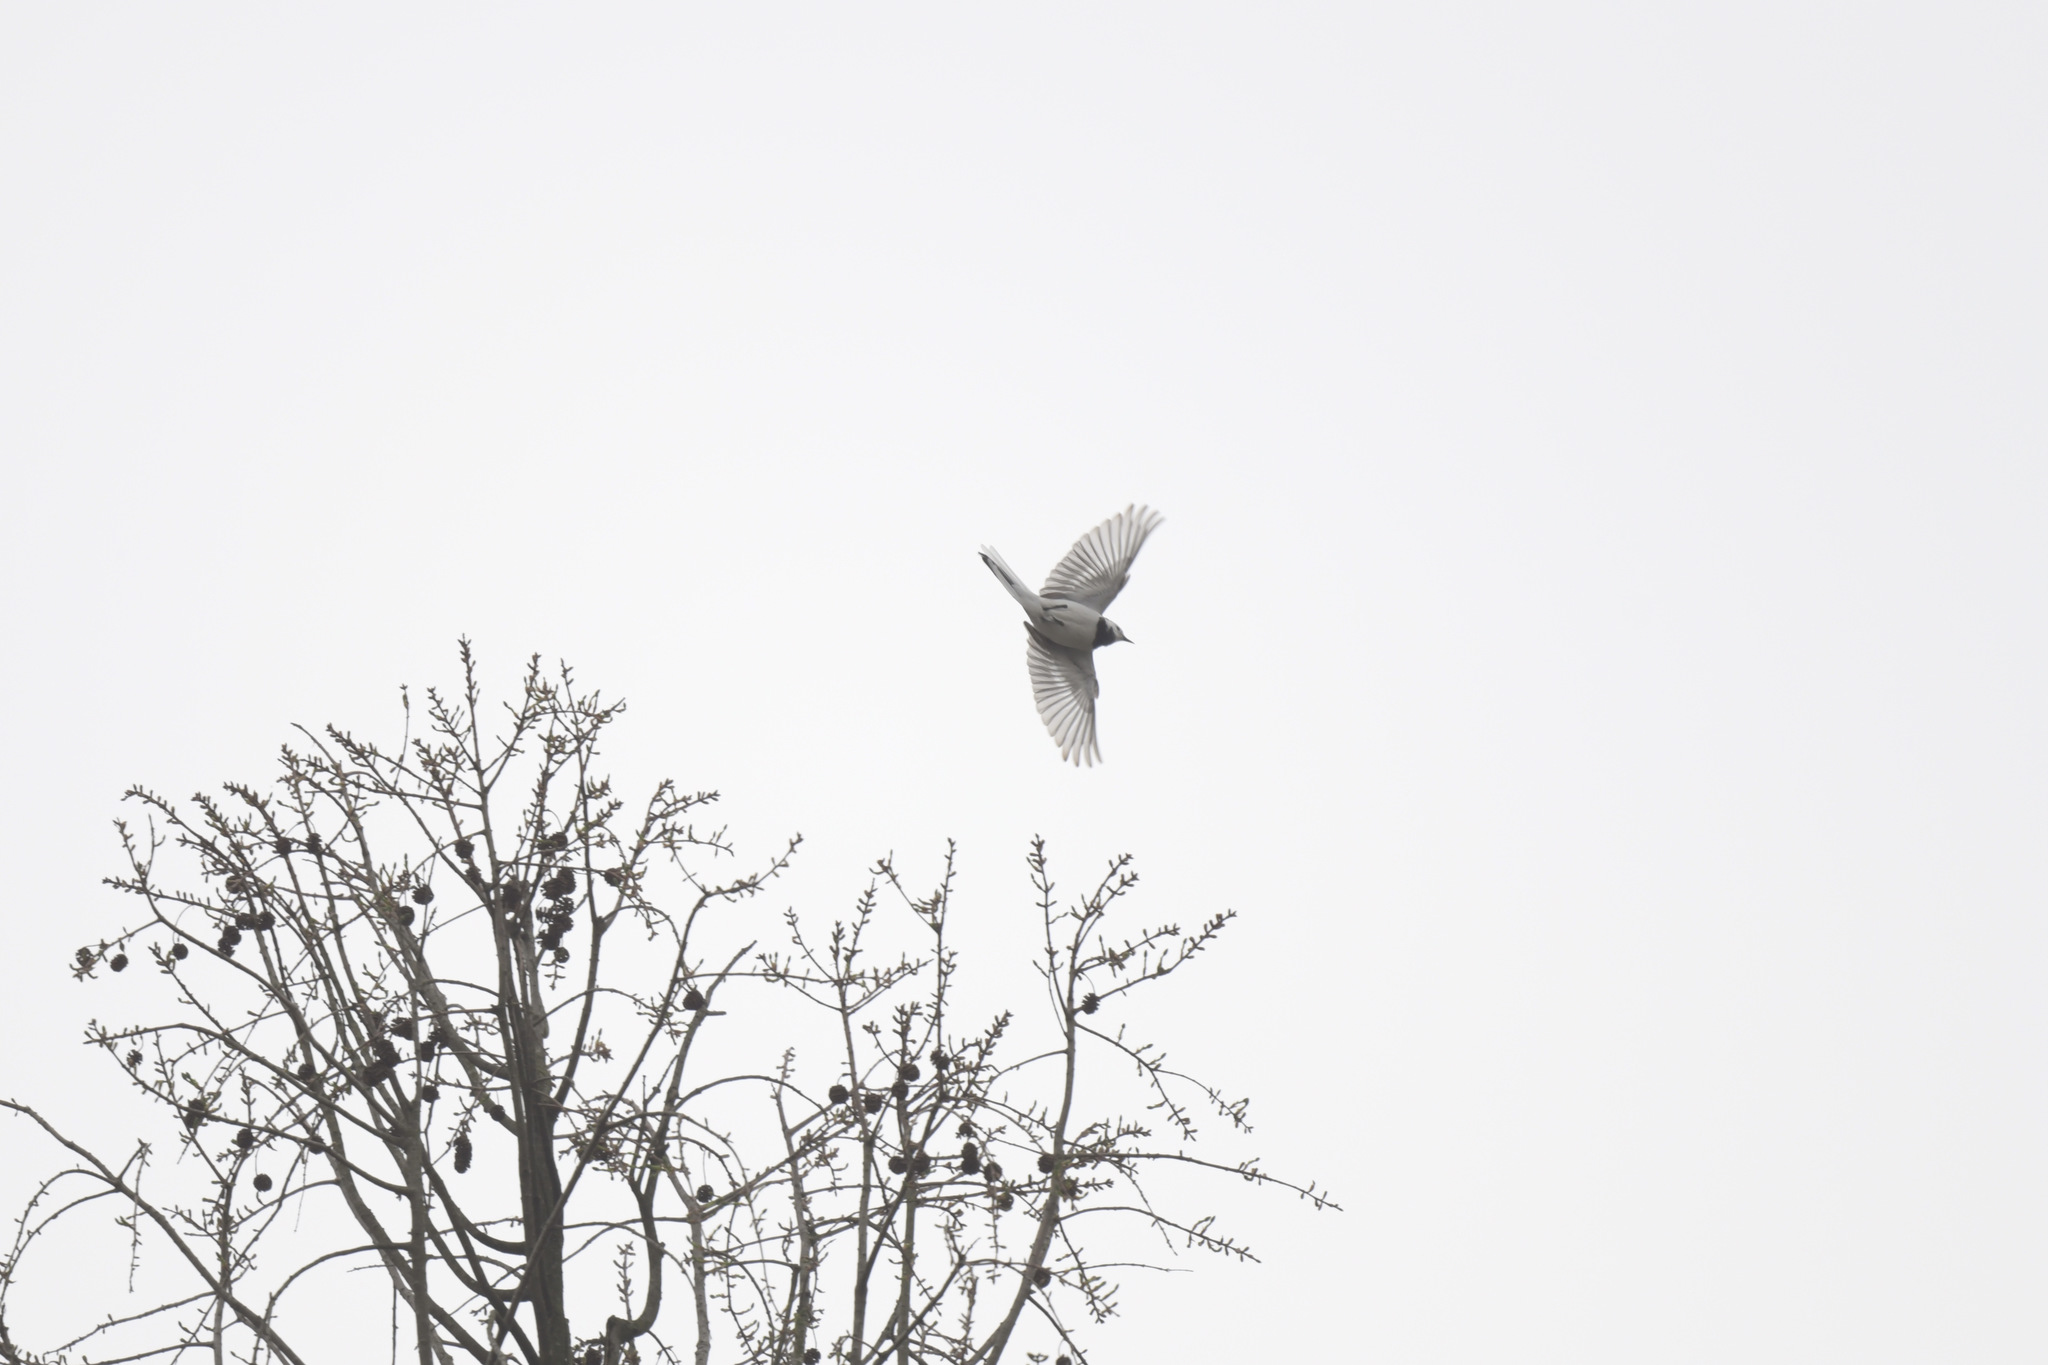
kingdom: Animalia
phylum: Chordata
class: Aves
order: Passeriformes
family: Motacillidae
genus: Motacilla
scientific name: Motacilla alba
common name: White wagtail
